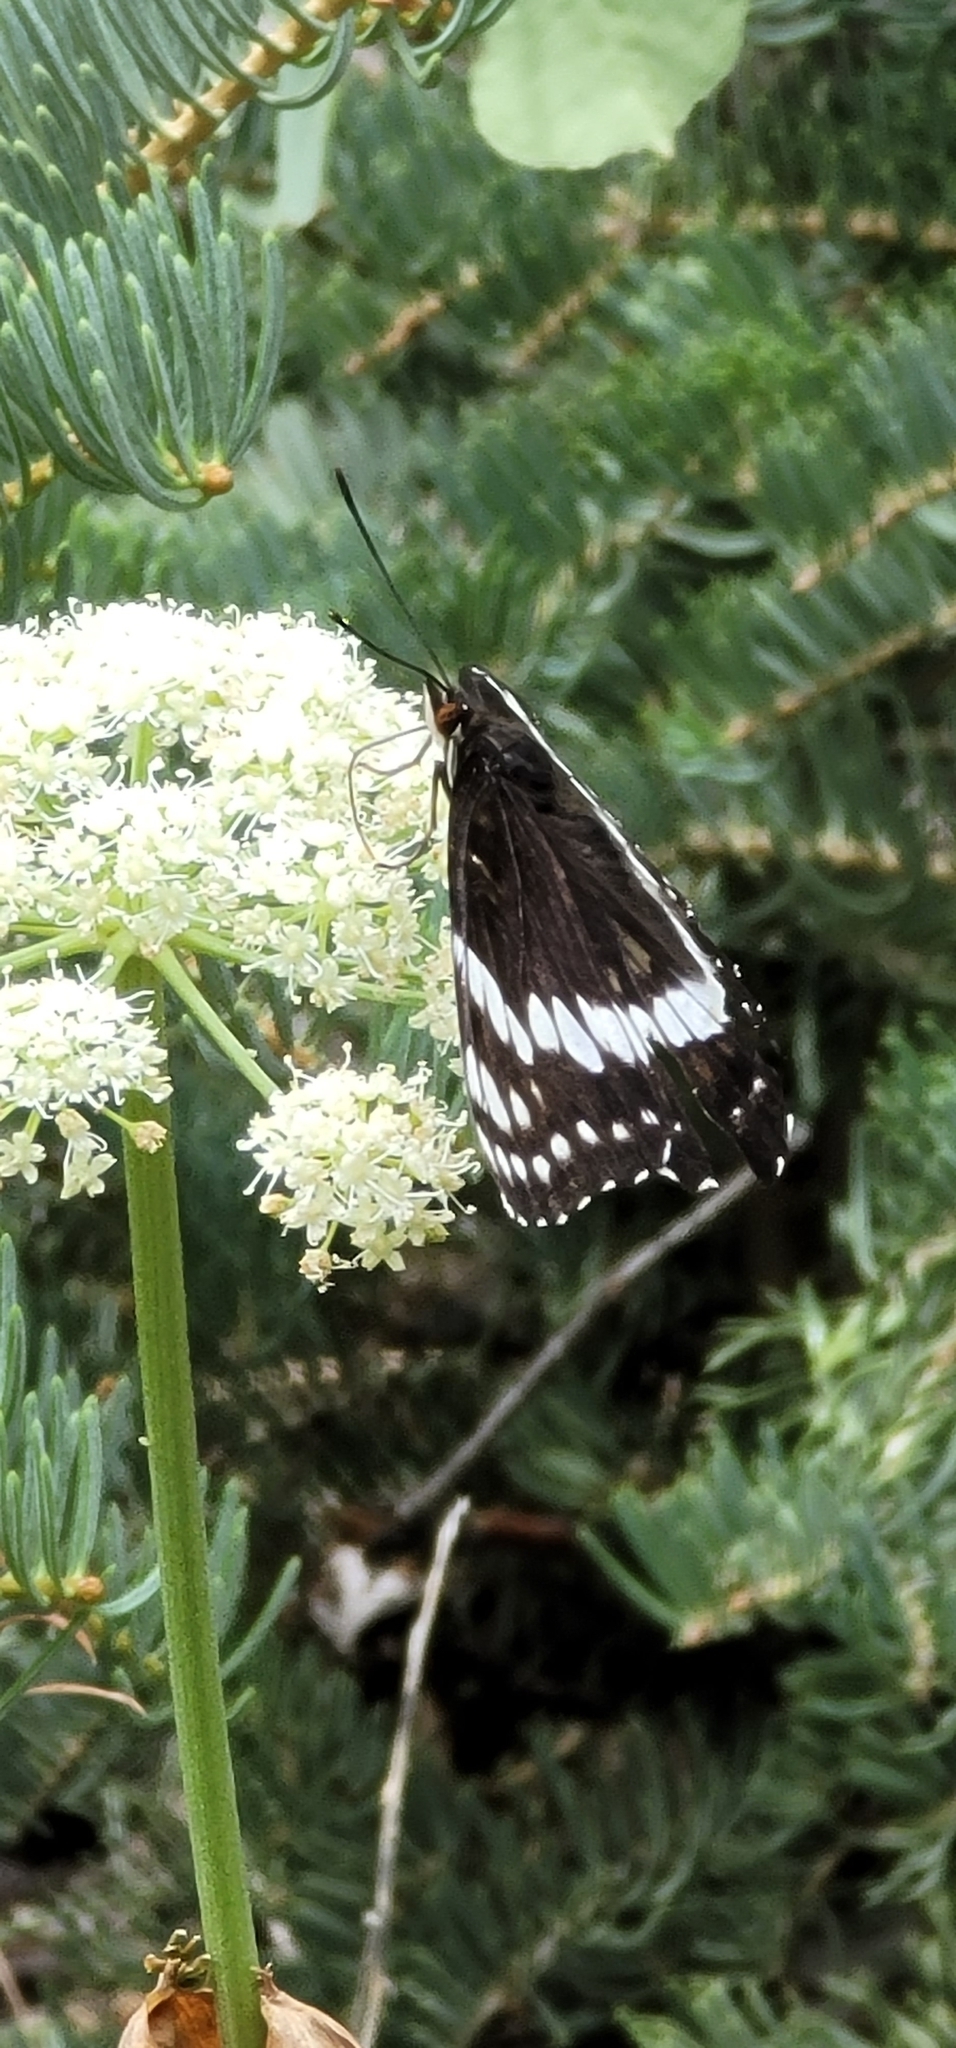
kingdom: Animalia
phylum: Arthropoda
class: Insecta
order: Lepidoptera
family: Nymphalidae
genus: Limenitis
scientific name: Limenitis weidermeyerii
